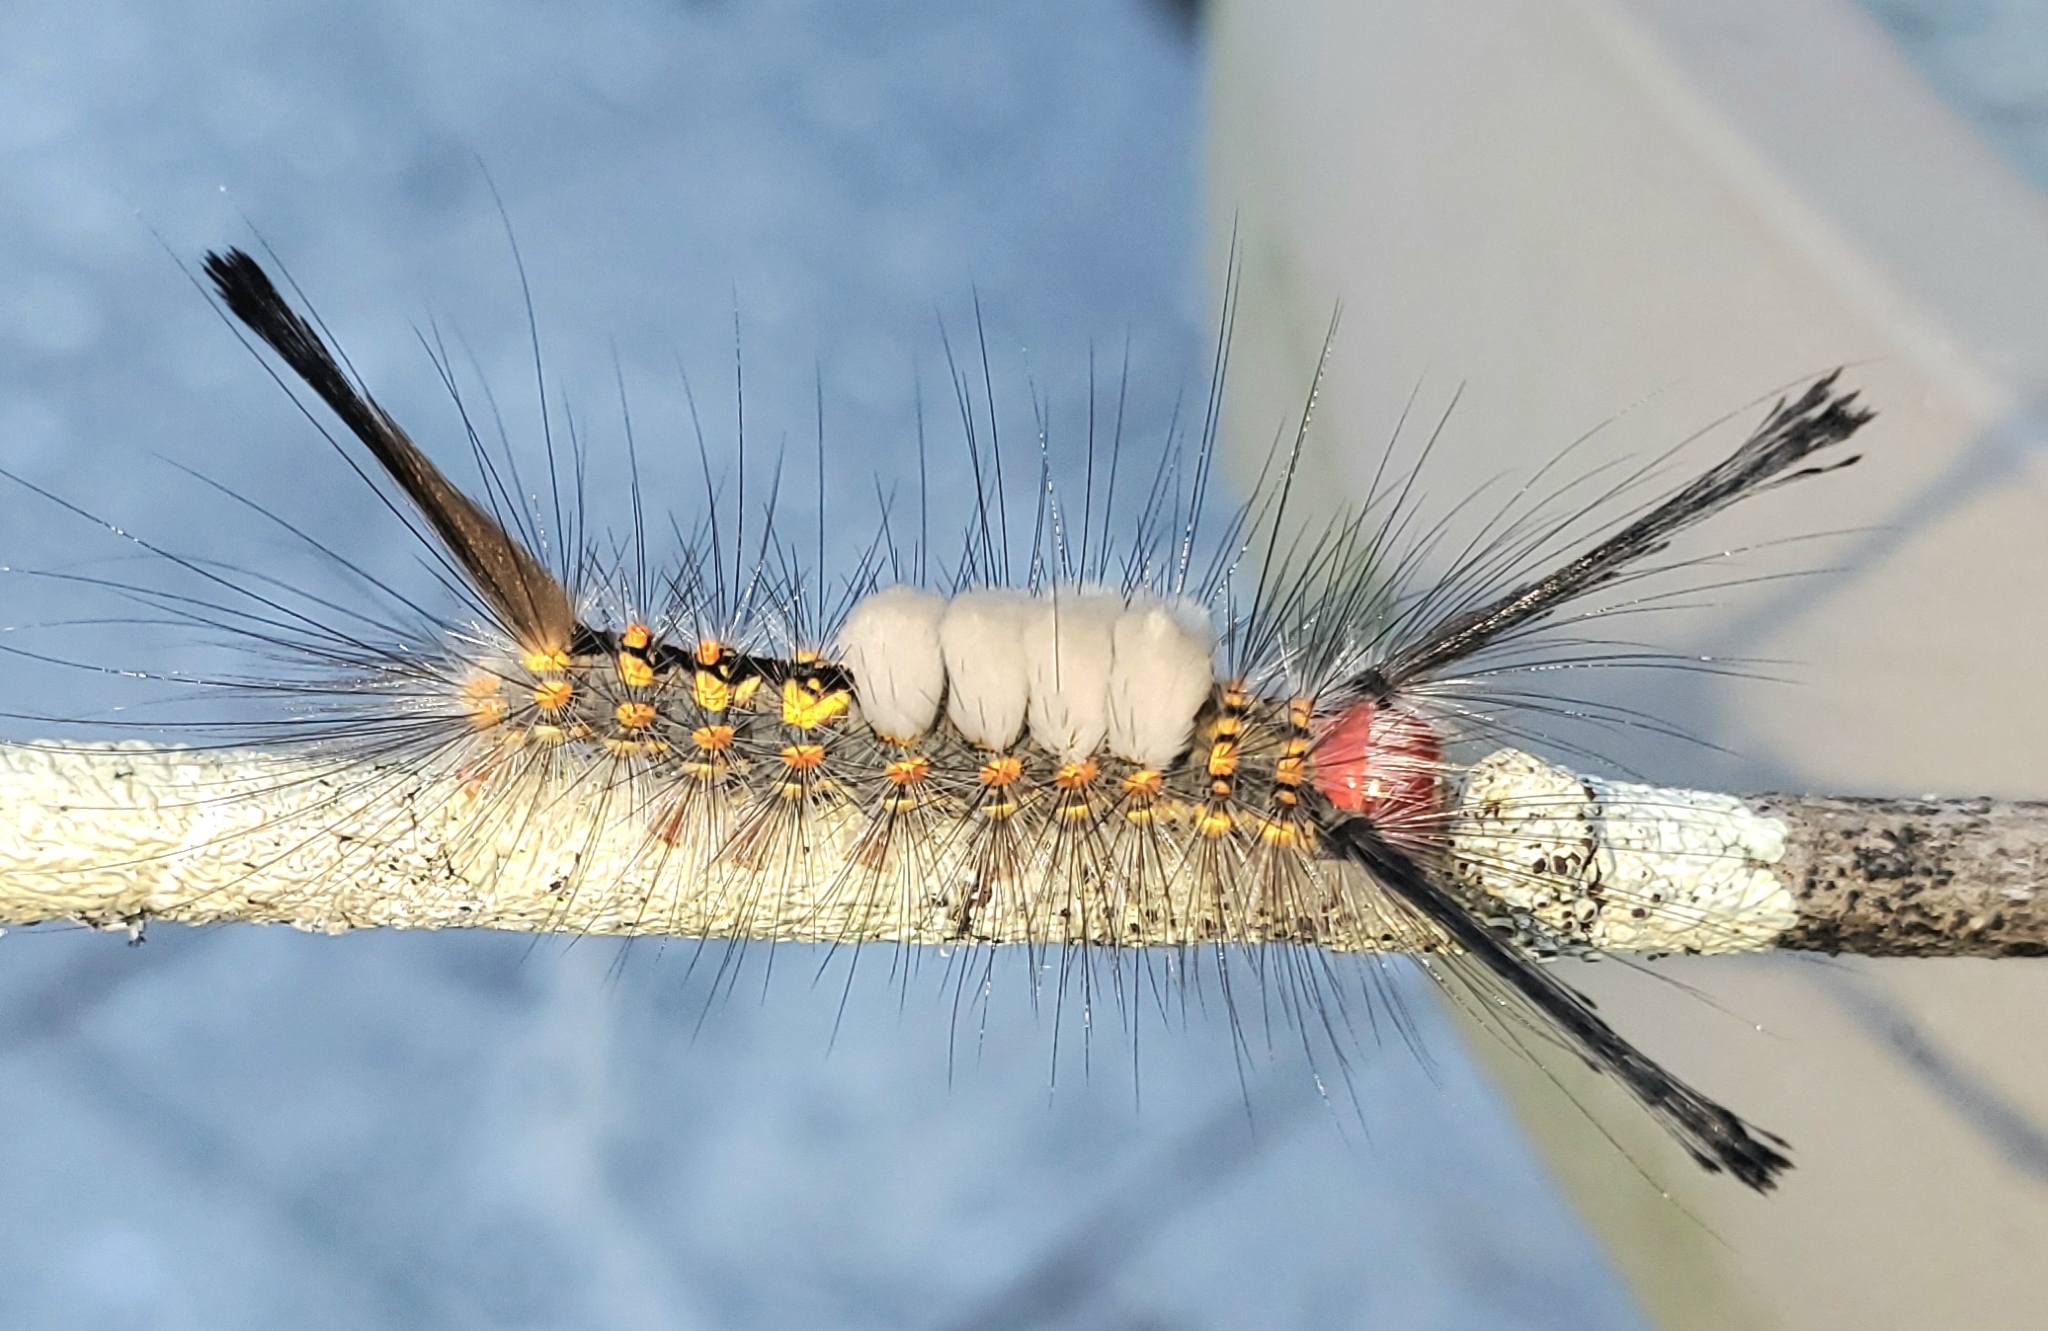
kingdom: Animalia
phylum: Arthropoda
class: Insecta
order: Lepidoptera
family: Erebidae
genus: Orgyia
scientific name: Orgyia detrita
